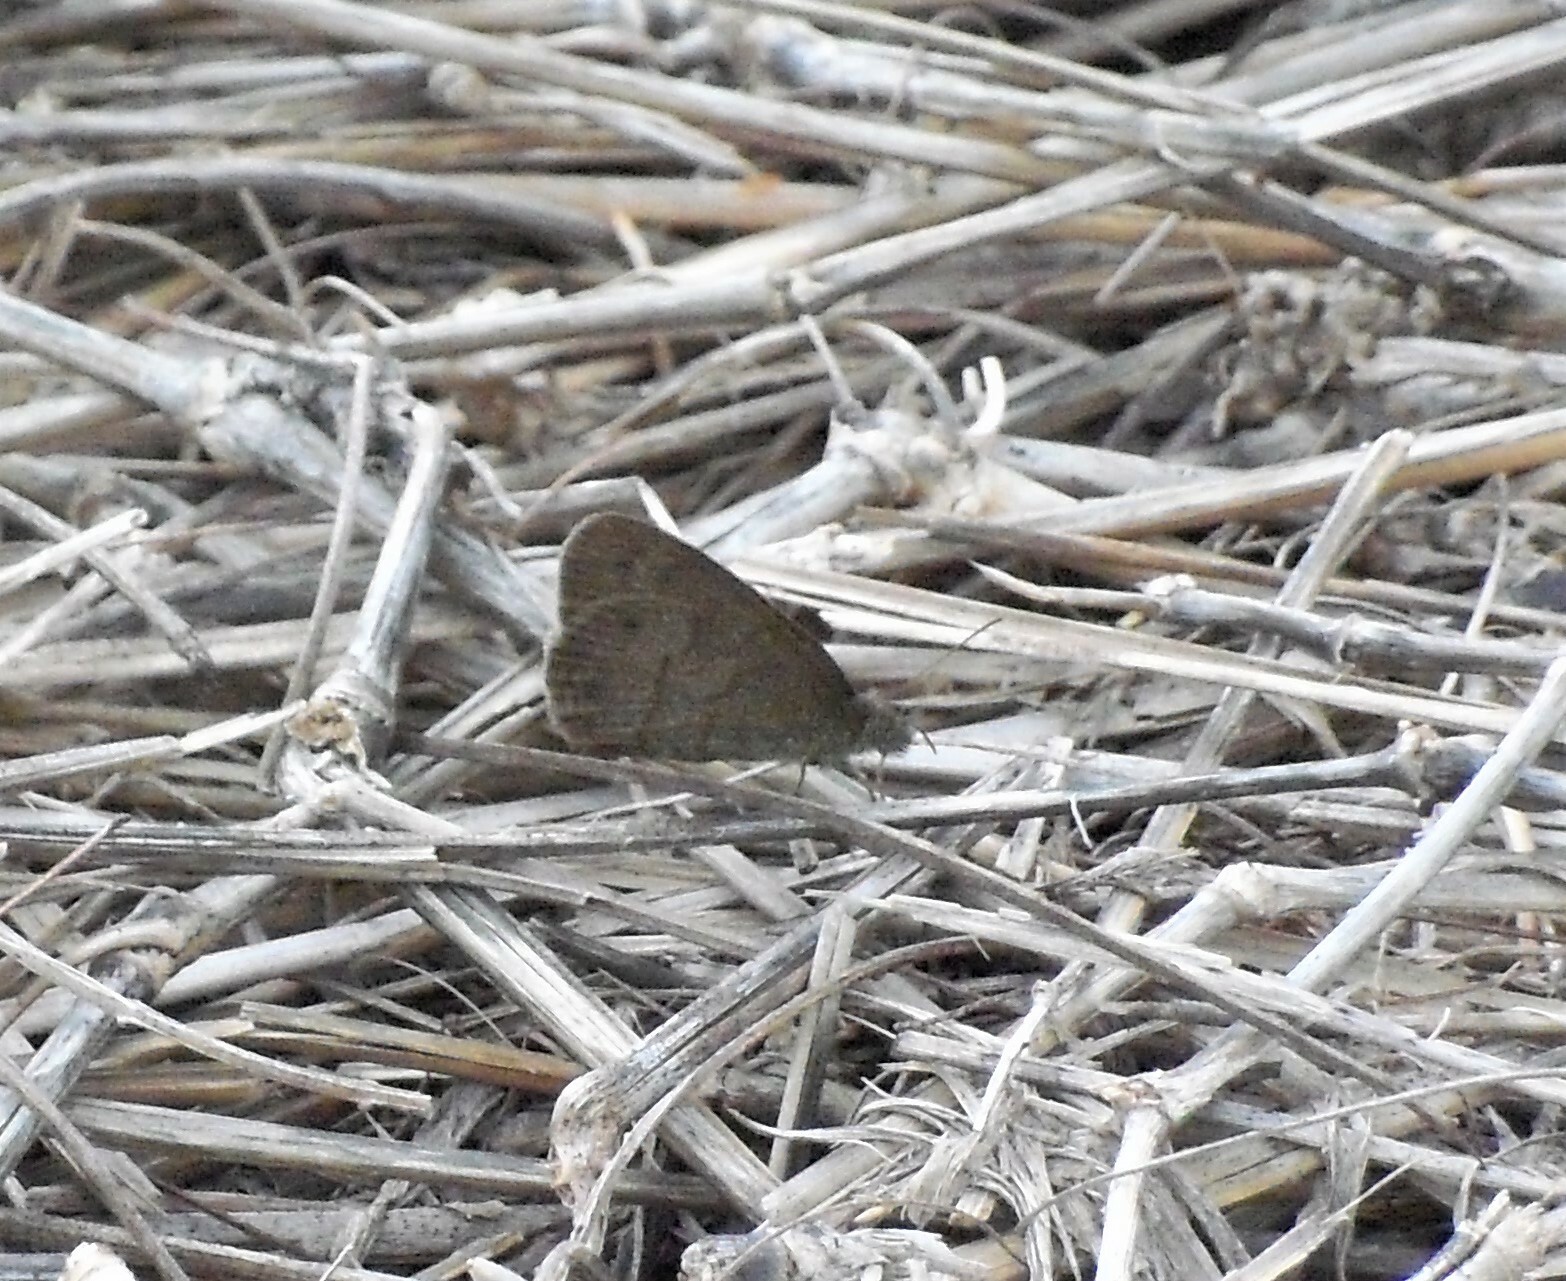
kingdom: Animalia
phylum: Arthropoda
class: Insecta
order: Lepidoptera
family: Nymphalidae
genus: Hermeuptychia
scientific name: Hermeuptychia hermybius
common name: South texas satyr
